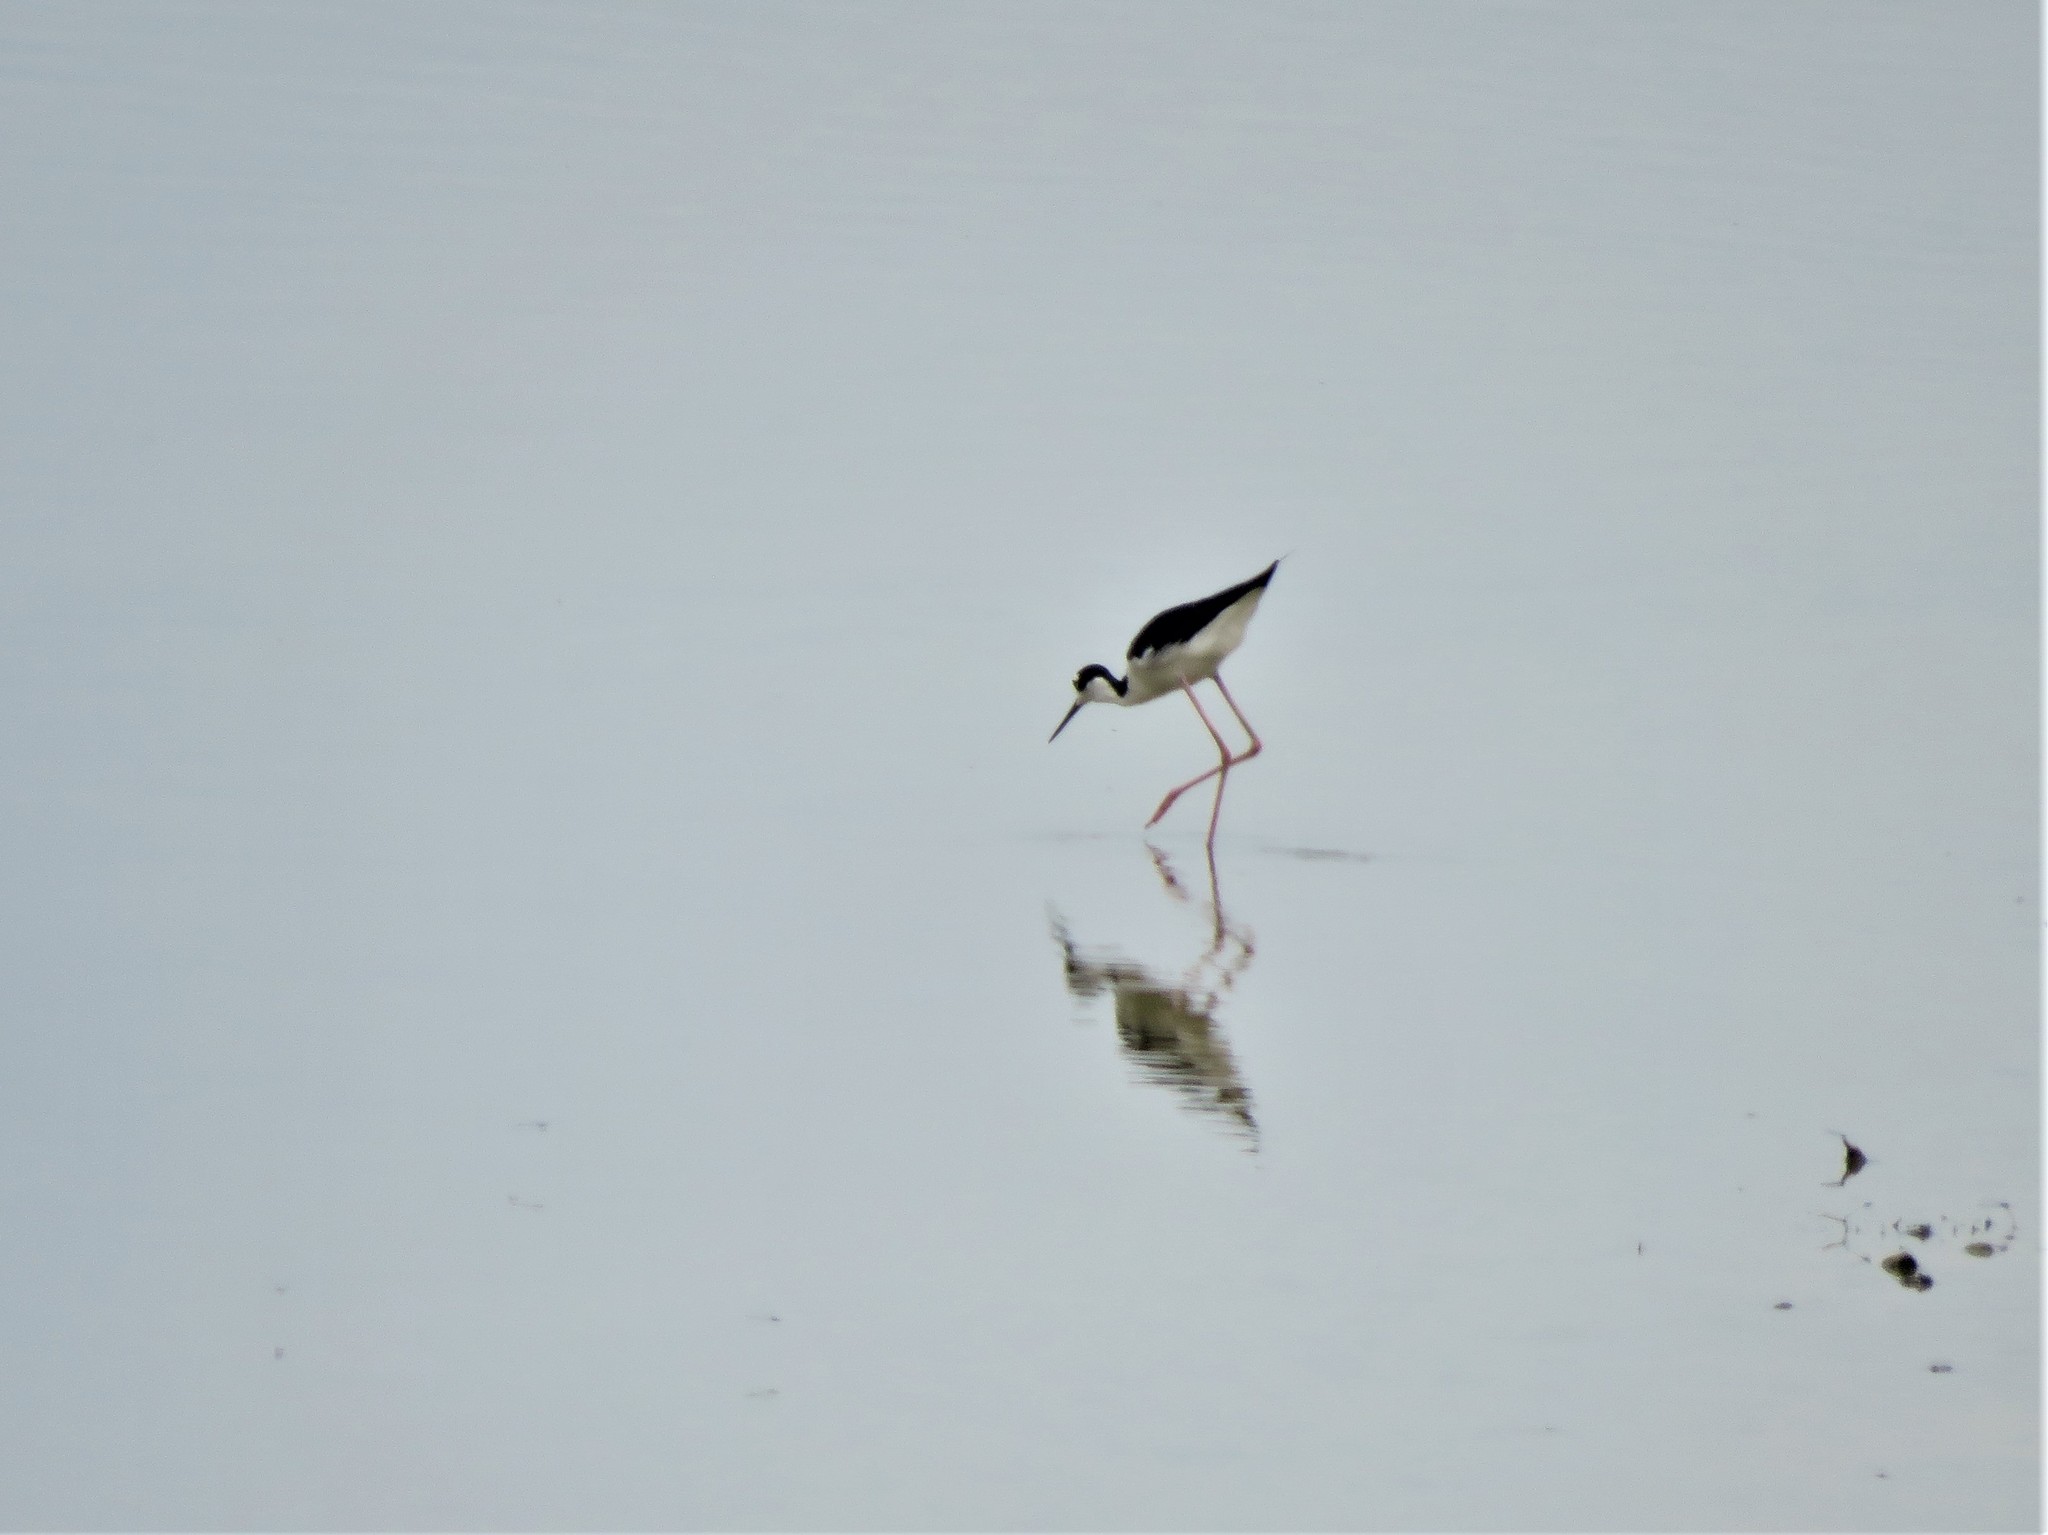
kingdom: Animalia
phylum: Chordata
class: Aves
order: Charadriiformes
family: Recurvirostridae
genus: Himantopus
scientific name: Himantopus mexicanus
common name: Black-necked stilt
